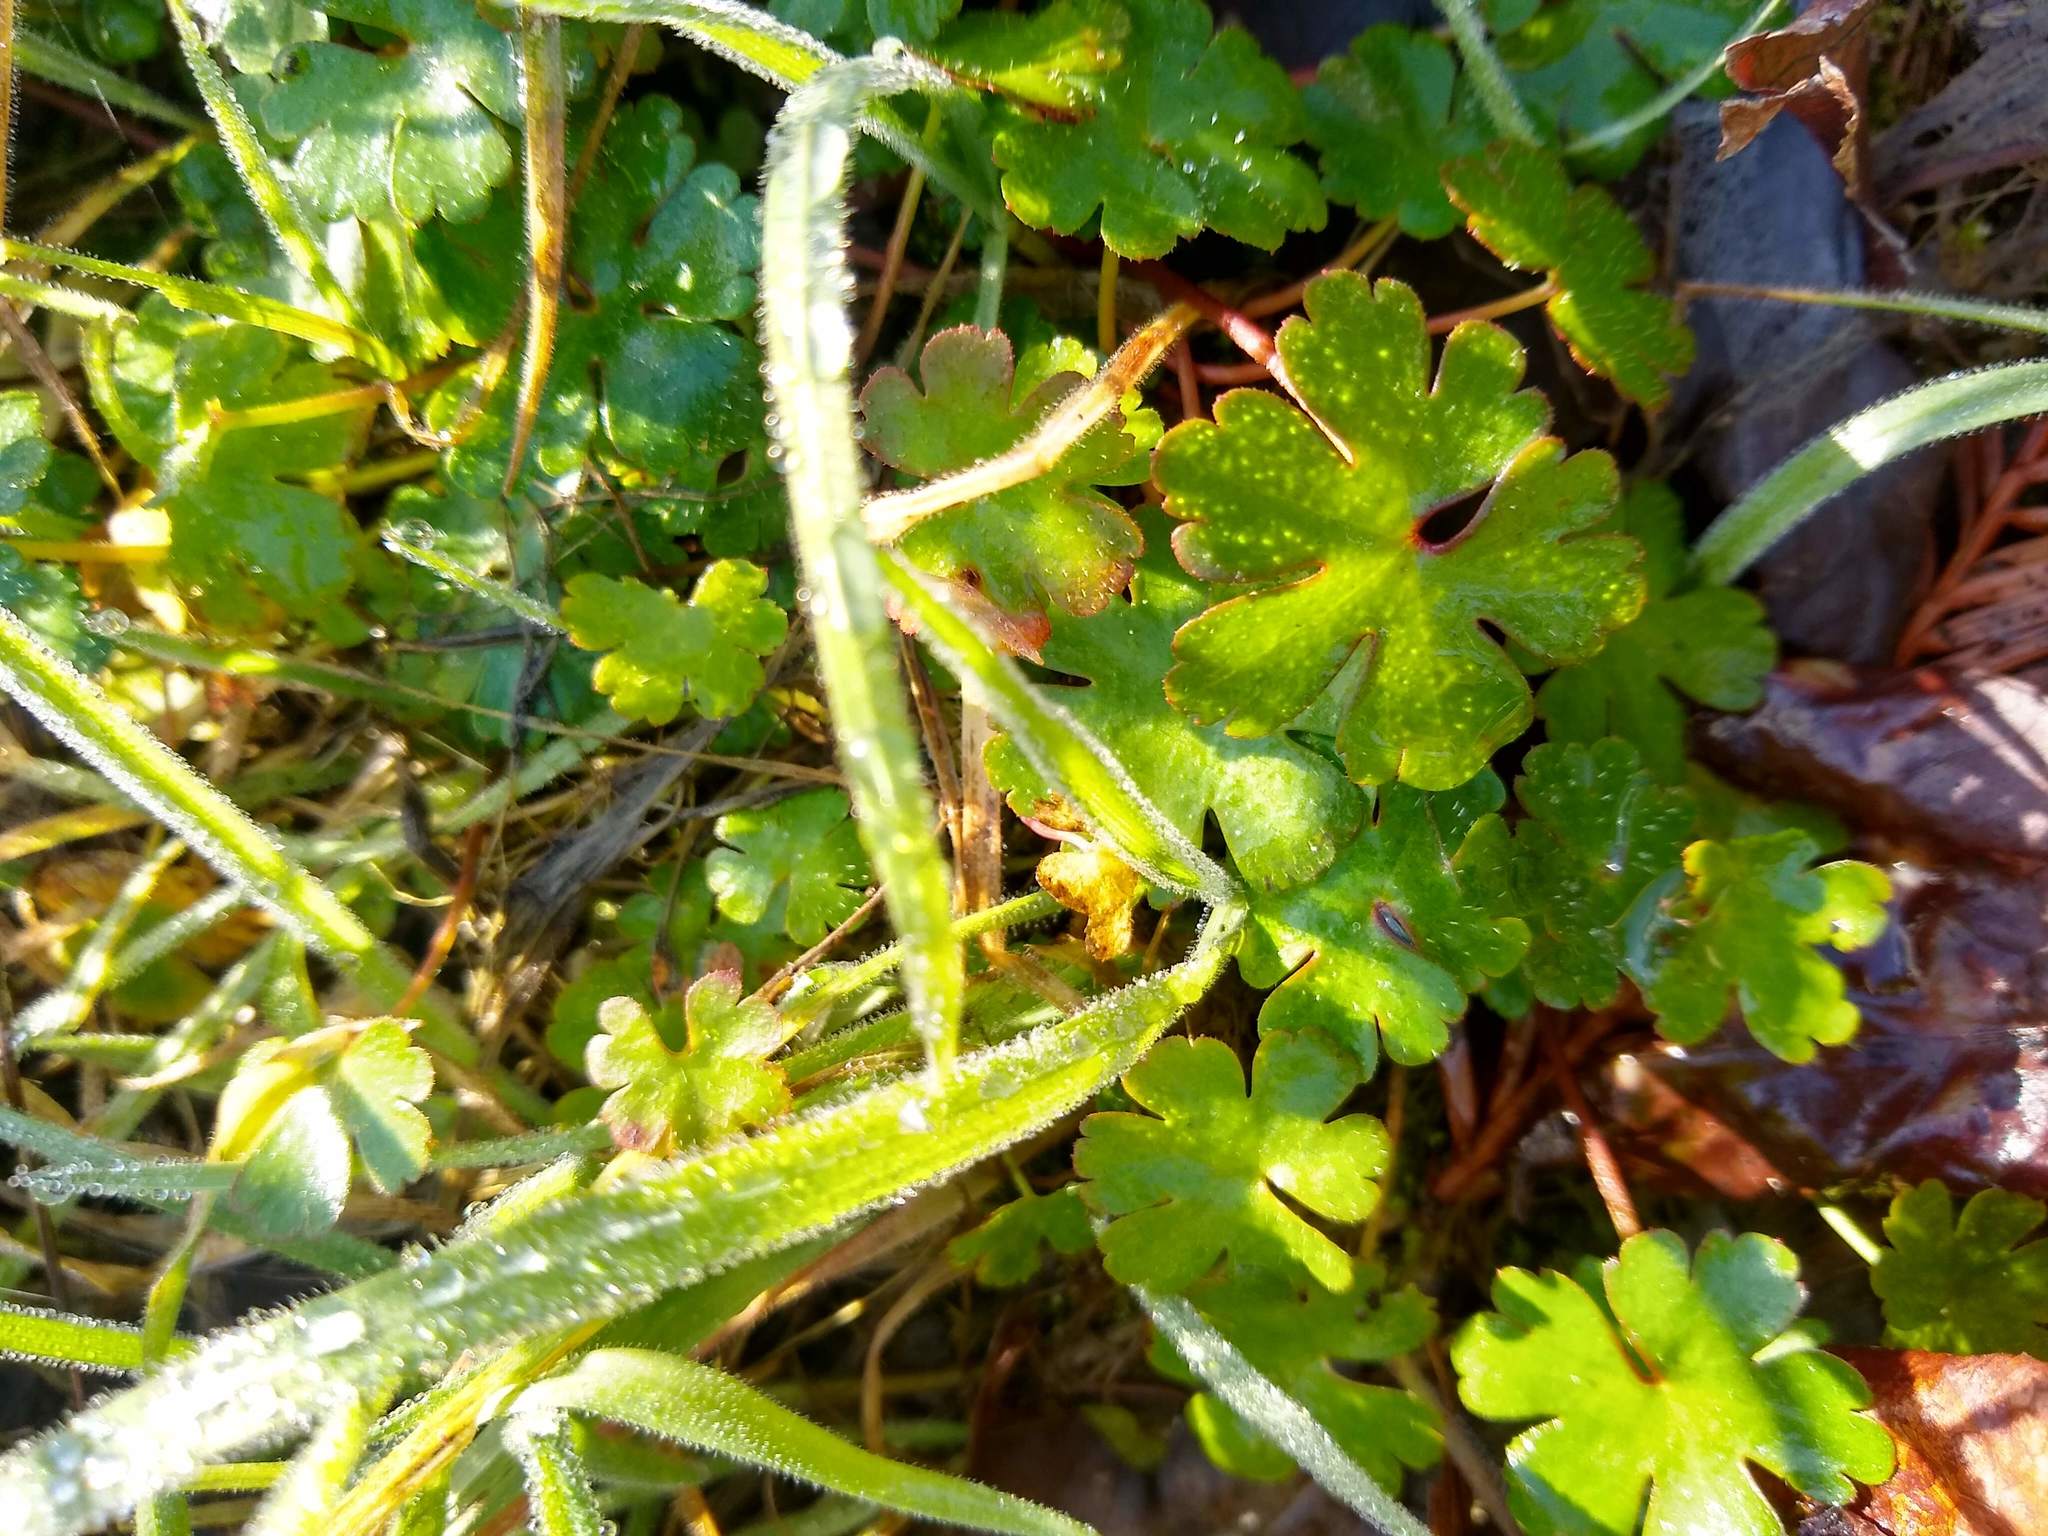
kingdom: Plantae
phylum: Tracheophyta
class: Magnoliopsida
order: Geraniales
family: Geraniaceae
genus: Geranium
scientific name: Geranium lucidum
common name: Shining crane's-bill
